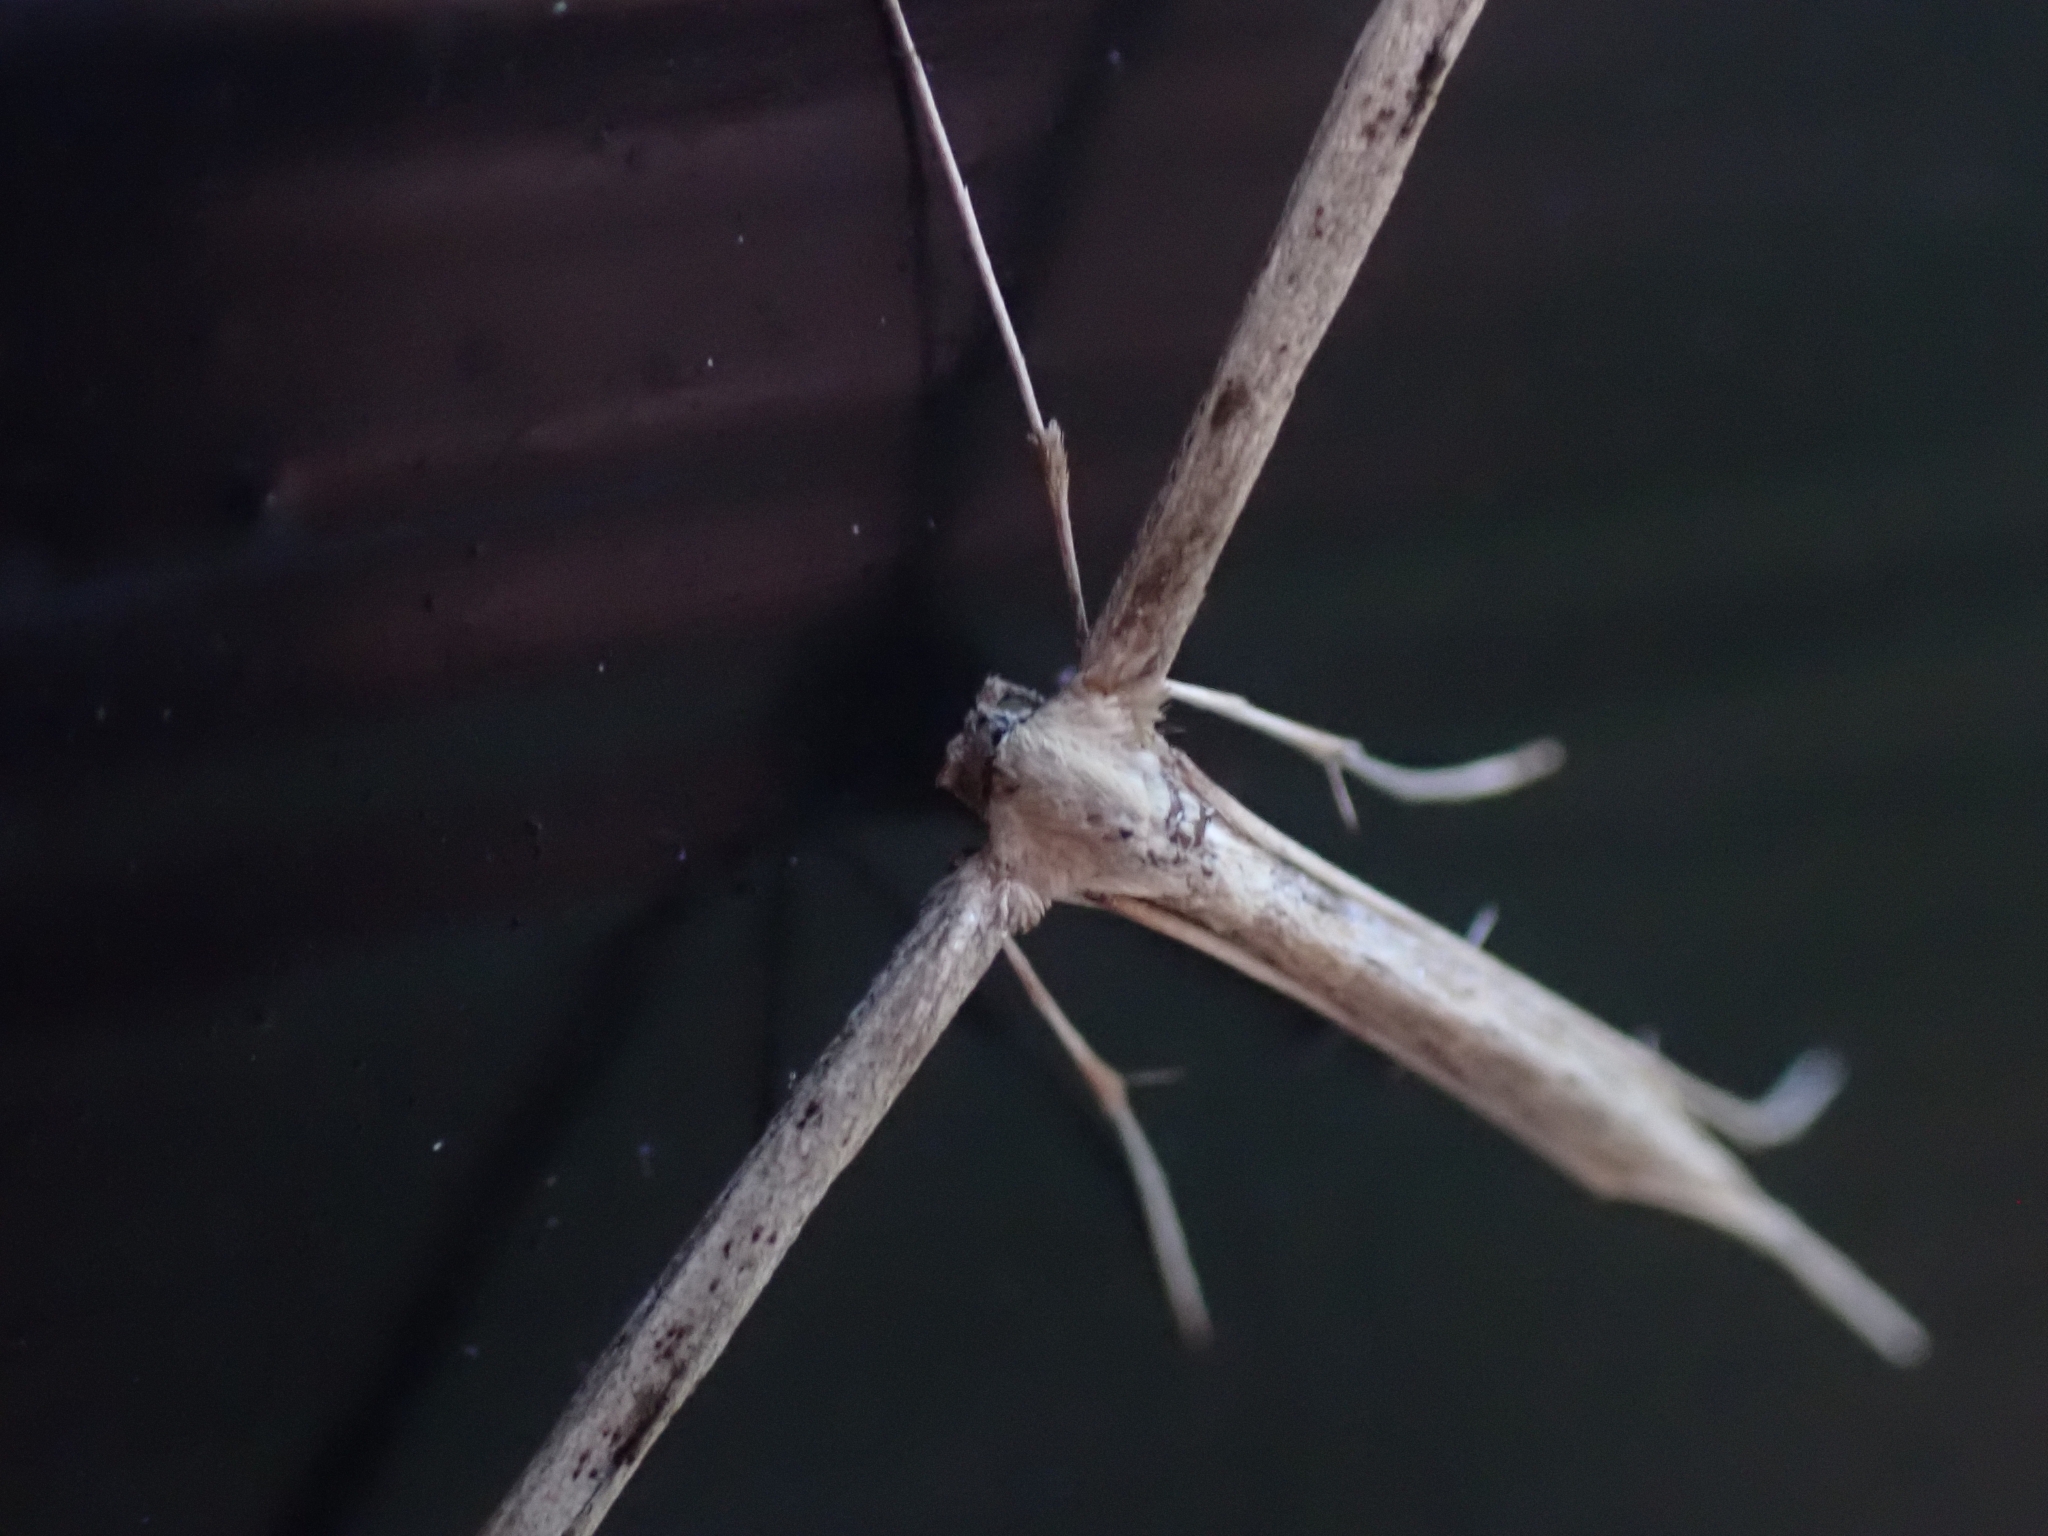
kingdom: Animalia
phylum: Arthropoda
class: Insecta
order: Lepidoptera
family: Pterophoridae
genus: Emmelina
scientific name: Emmelina monodactyla
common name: Common plume
